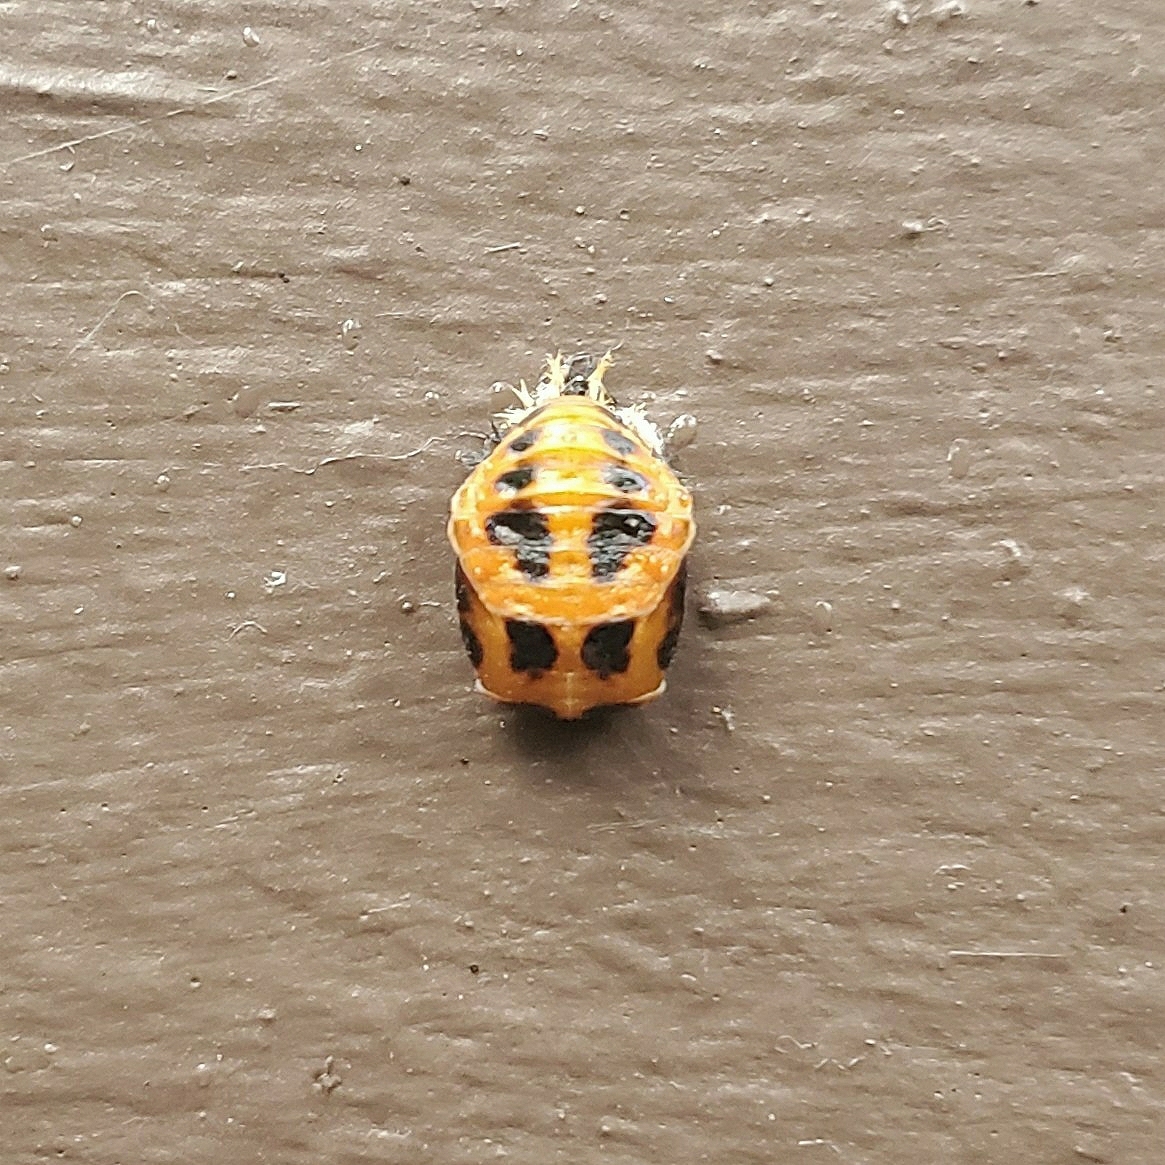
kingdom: Animalia
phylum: Arthropoda
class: Insecta
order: Coleoptera
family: Coccinellidae
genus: Harmonia
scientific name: Harmonia axyridis
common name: Harlequin ladybird
